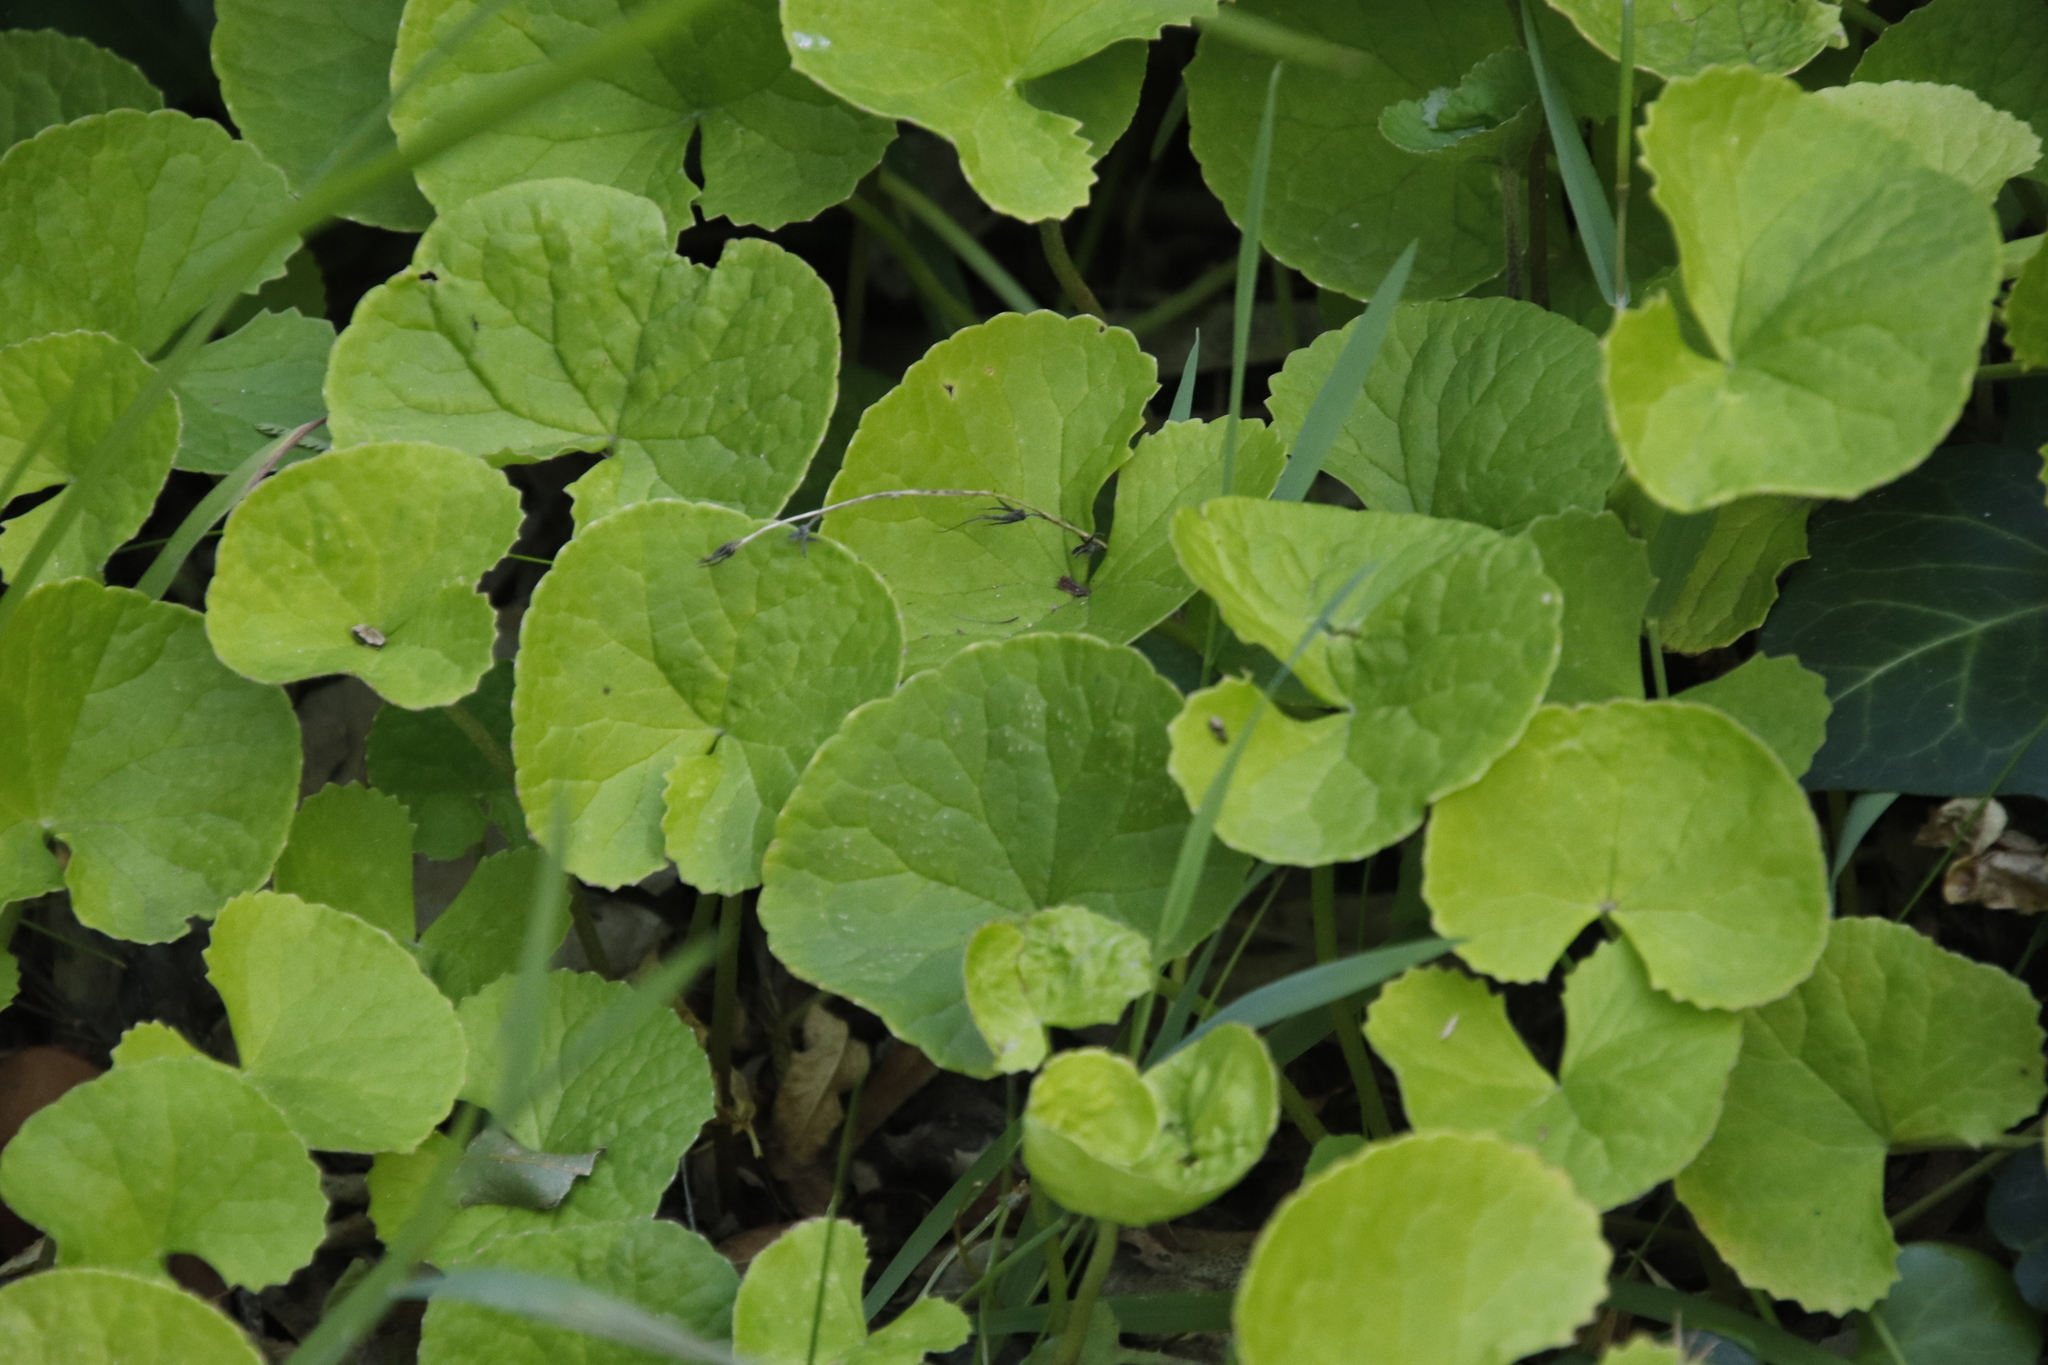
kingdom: Plantae
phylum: Tracheophyta
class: Magnoliopsida
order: Apiales
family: Apiaceae
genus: Centella
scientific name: Centella asiatica
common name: Spadeleaf
